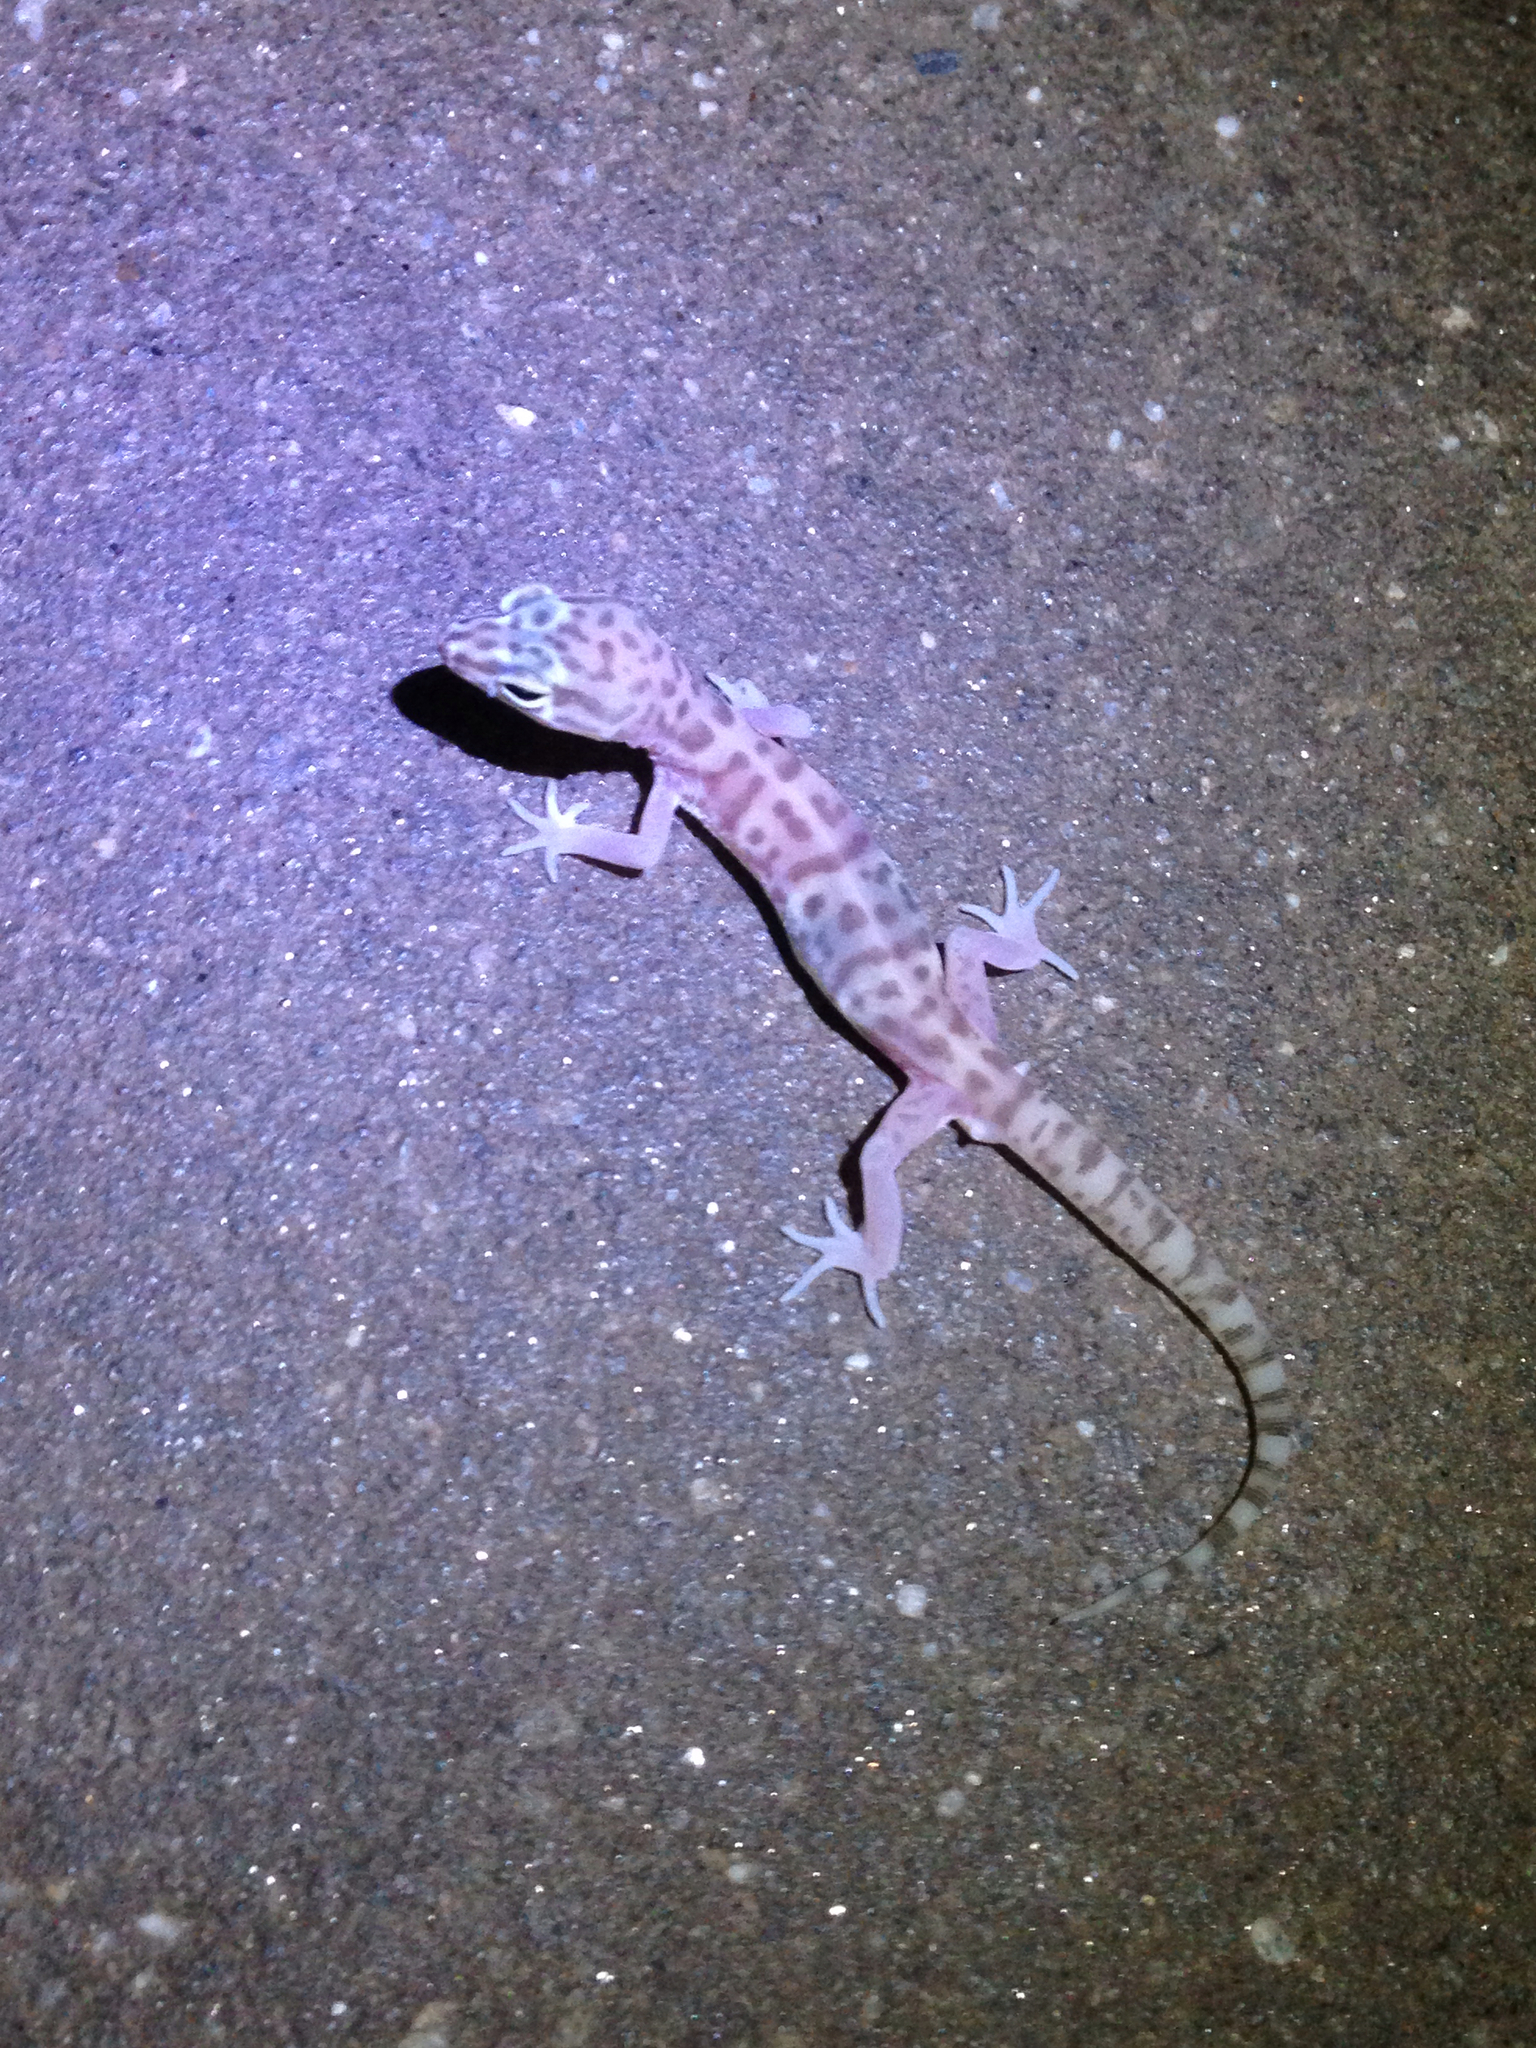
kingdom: Animalia
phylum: Chordata
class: Squamata
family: Eublepharidae
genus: Coleonyx
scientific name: Coleonyx variegatus
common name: Western banded gecko
